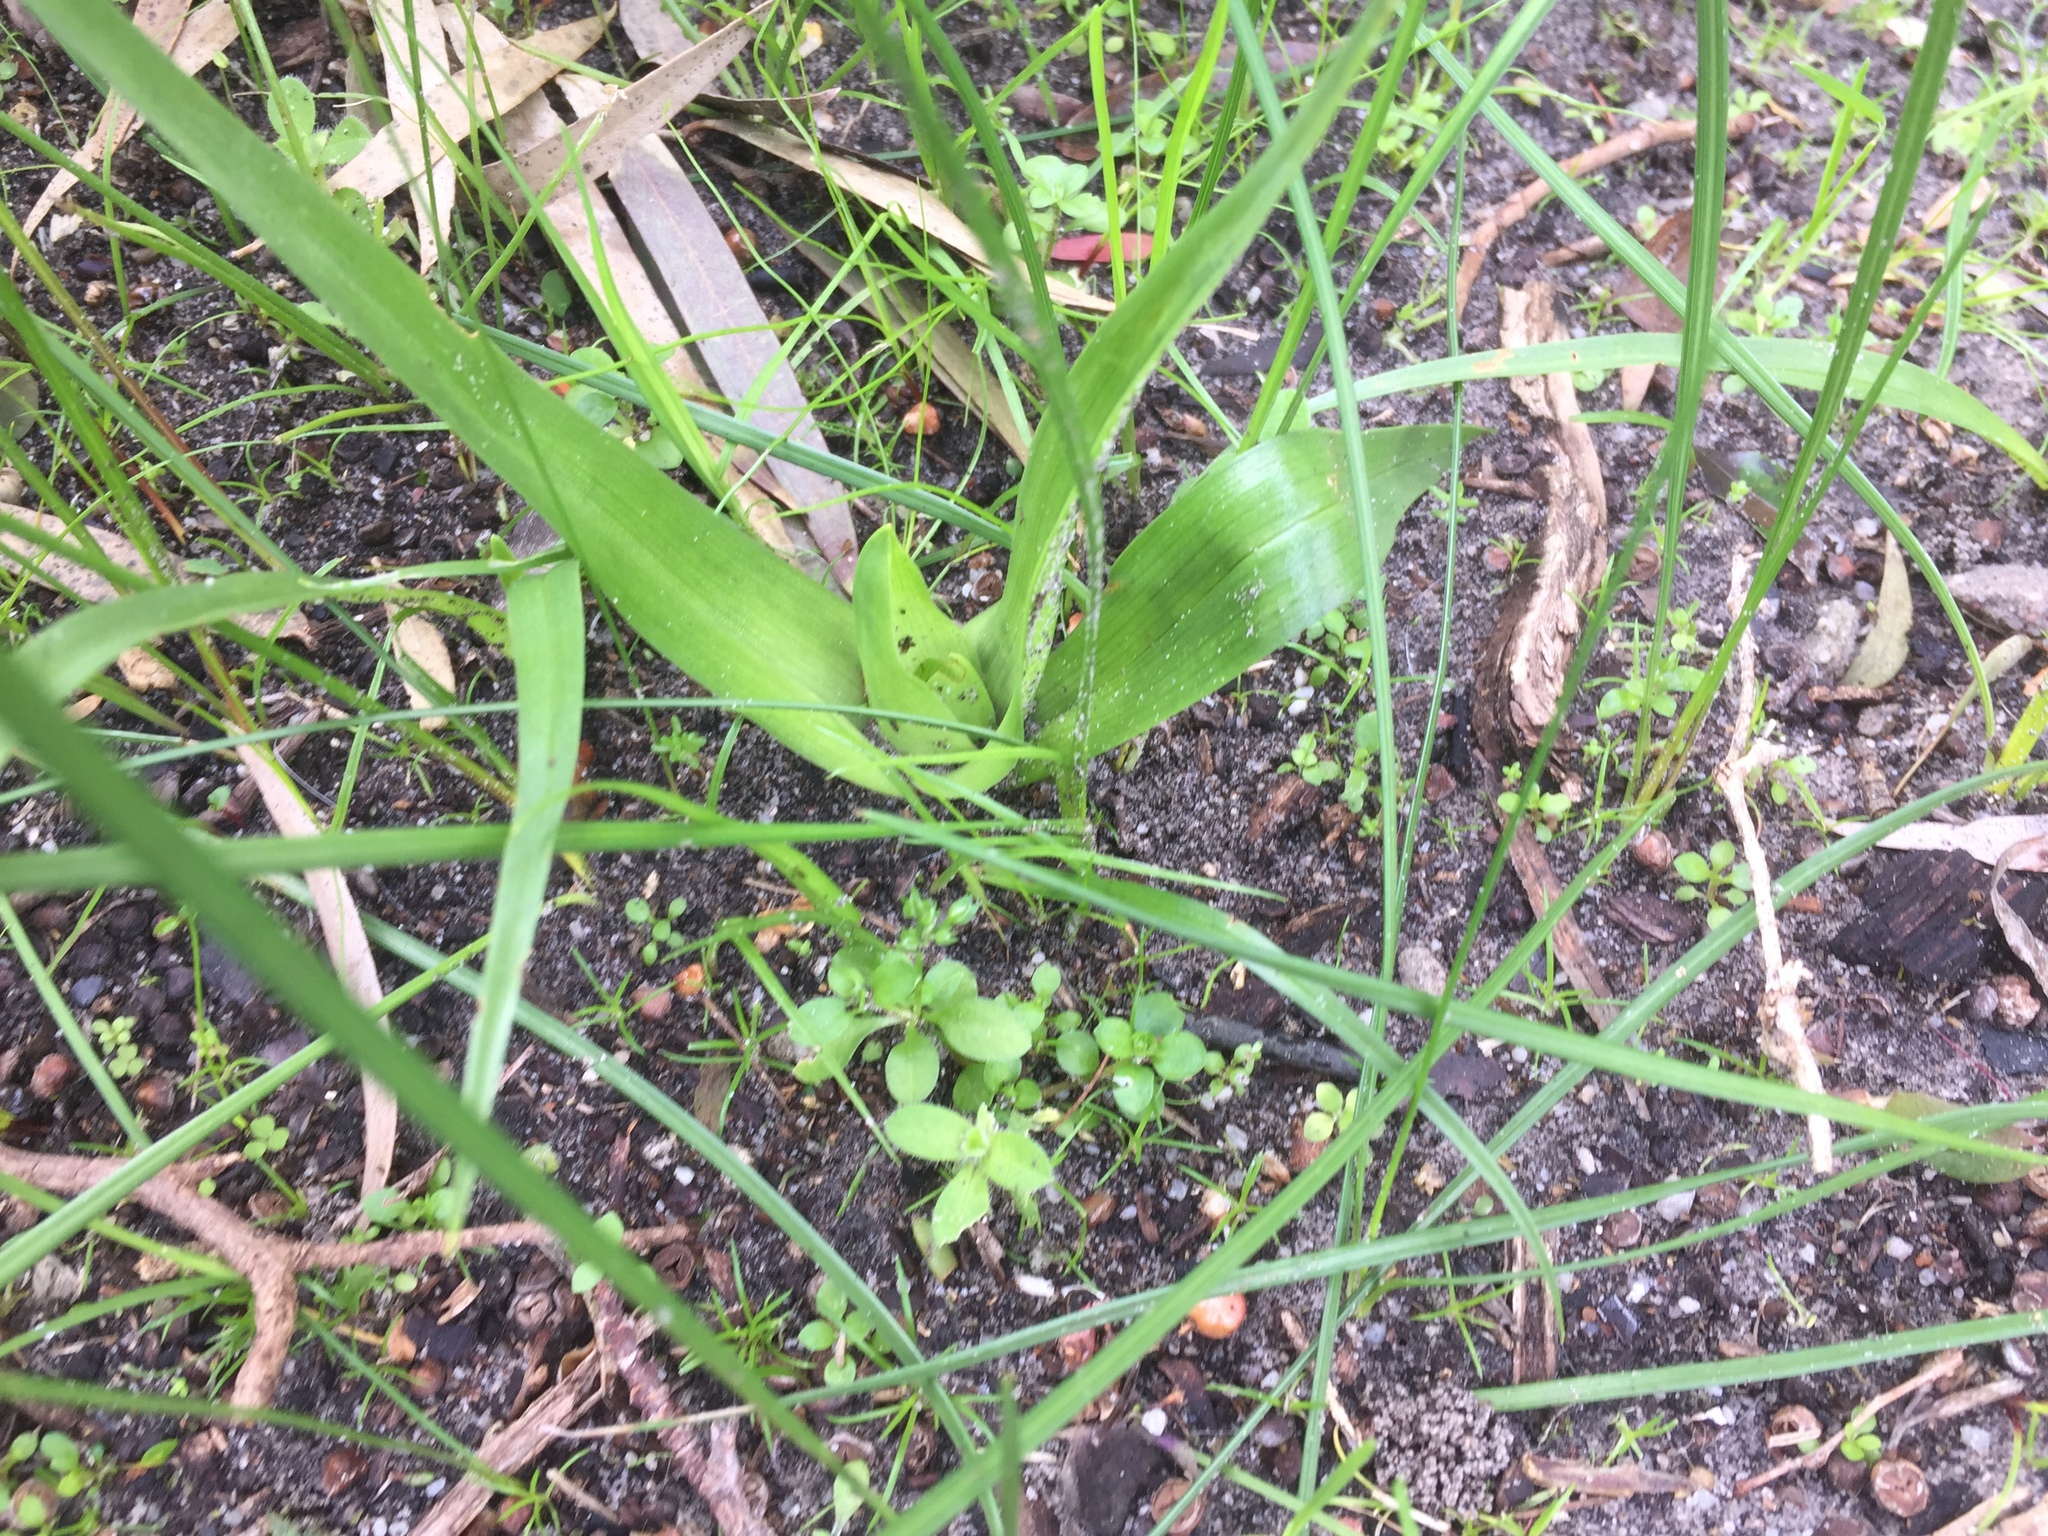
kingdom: Plantae
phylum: Tracheophyta
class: Liliopsida
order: Liliales
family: Colchicaceae
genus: Colchicum
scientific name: Colchicum eucomoides
